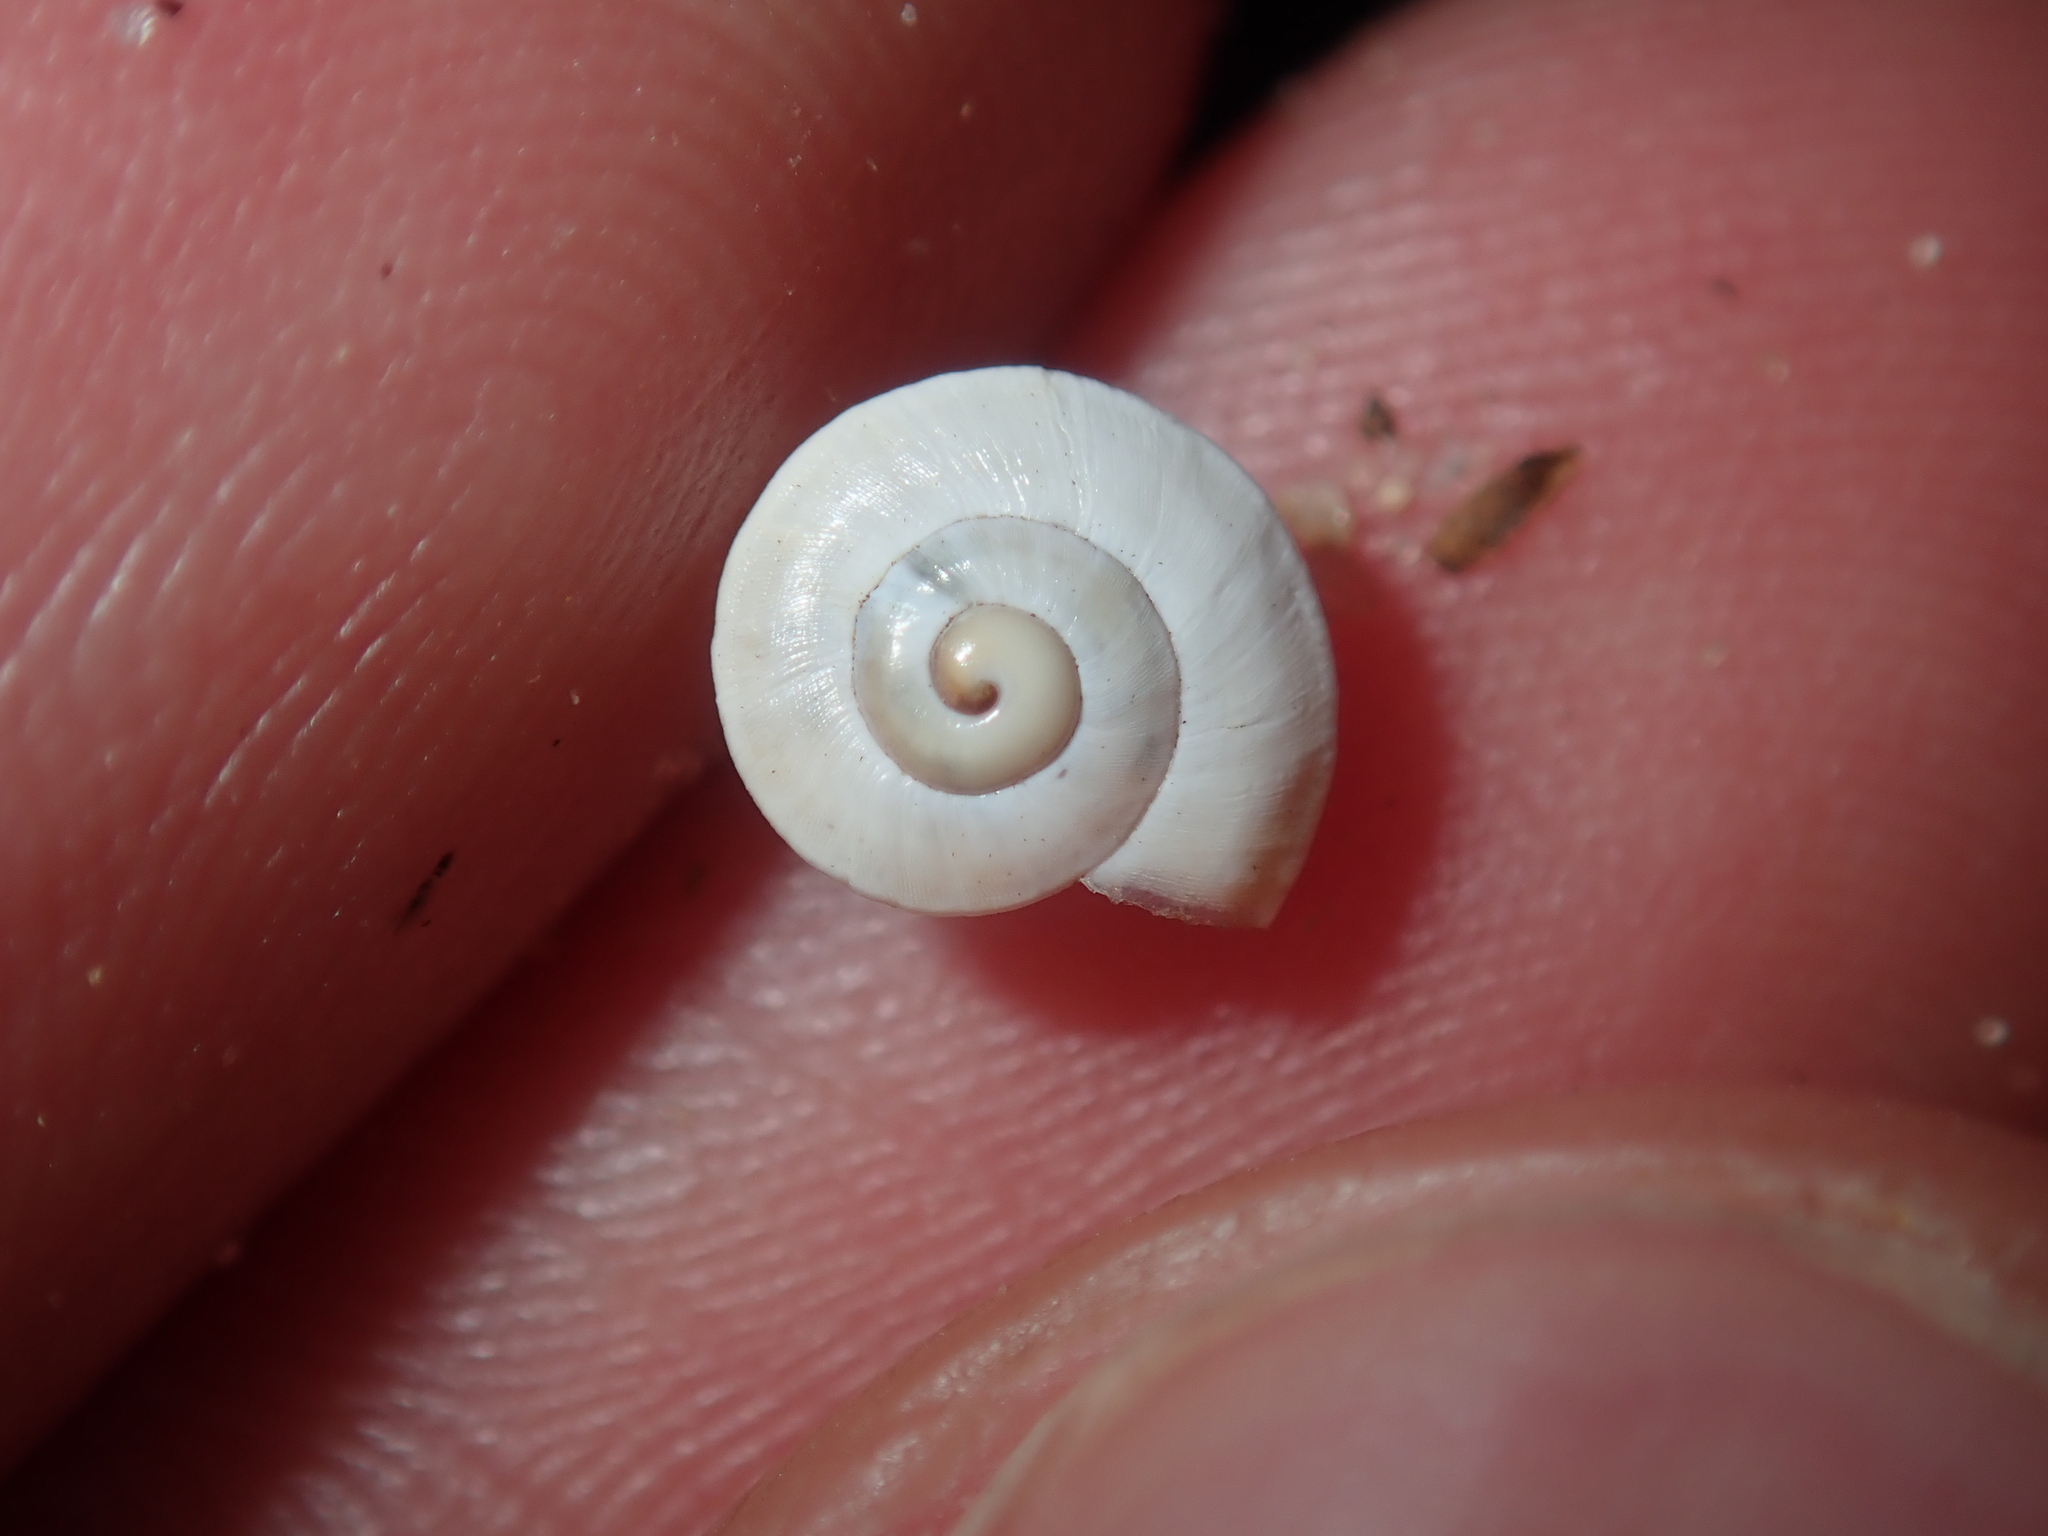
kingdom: Animalia
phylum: Mollusca
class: Gastropoda
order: Stylommatophora
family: Helicidae
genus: Theba
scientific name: Theba pisana
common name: White snail
